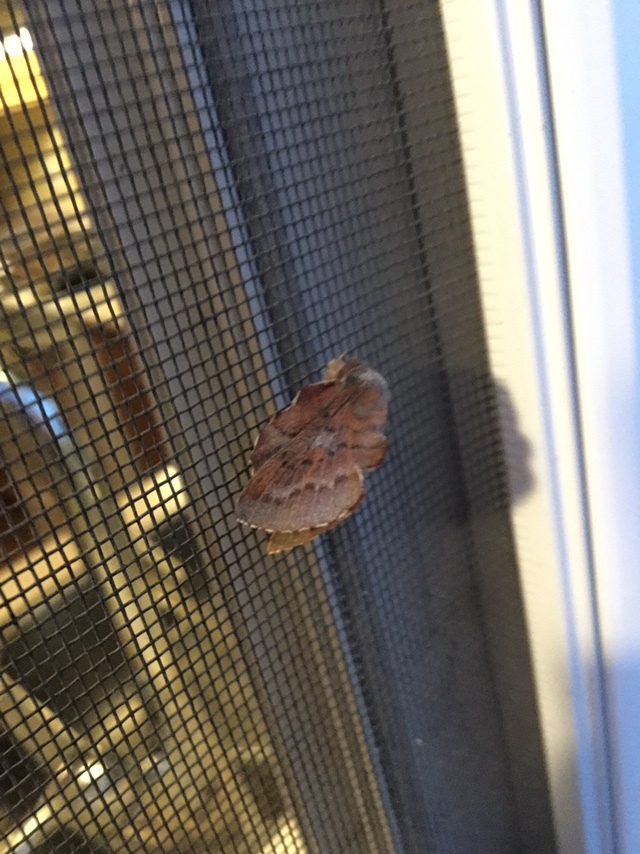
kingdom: Animalia
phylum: Arthropoda
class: Insecta
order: Lepidoptera
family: Lasiocampidae
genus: Phyllodesma
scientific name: Phyllodesma americana
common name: American lappet moth
